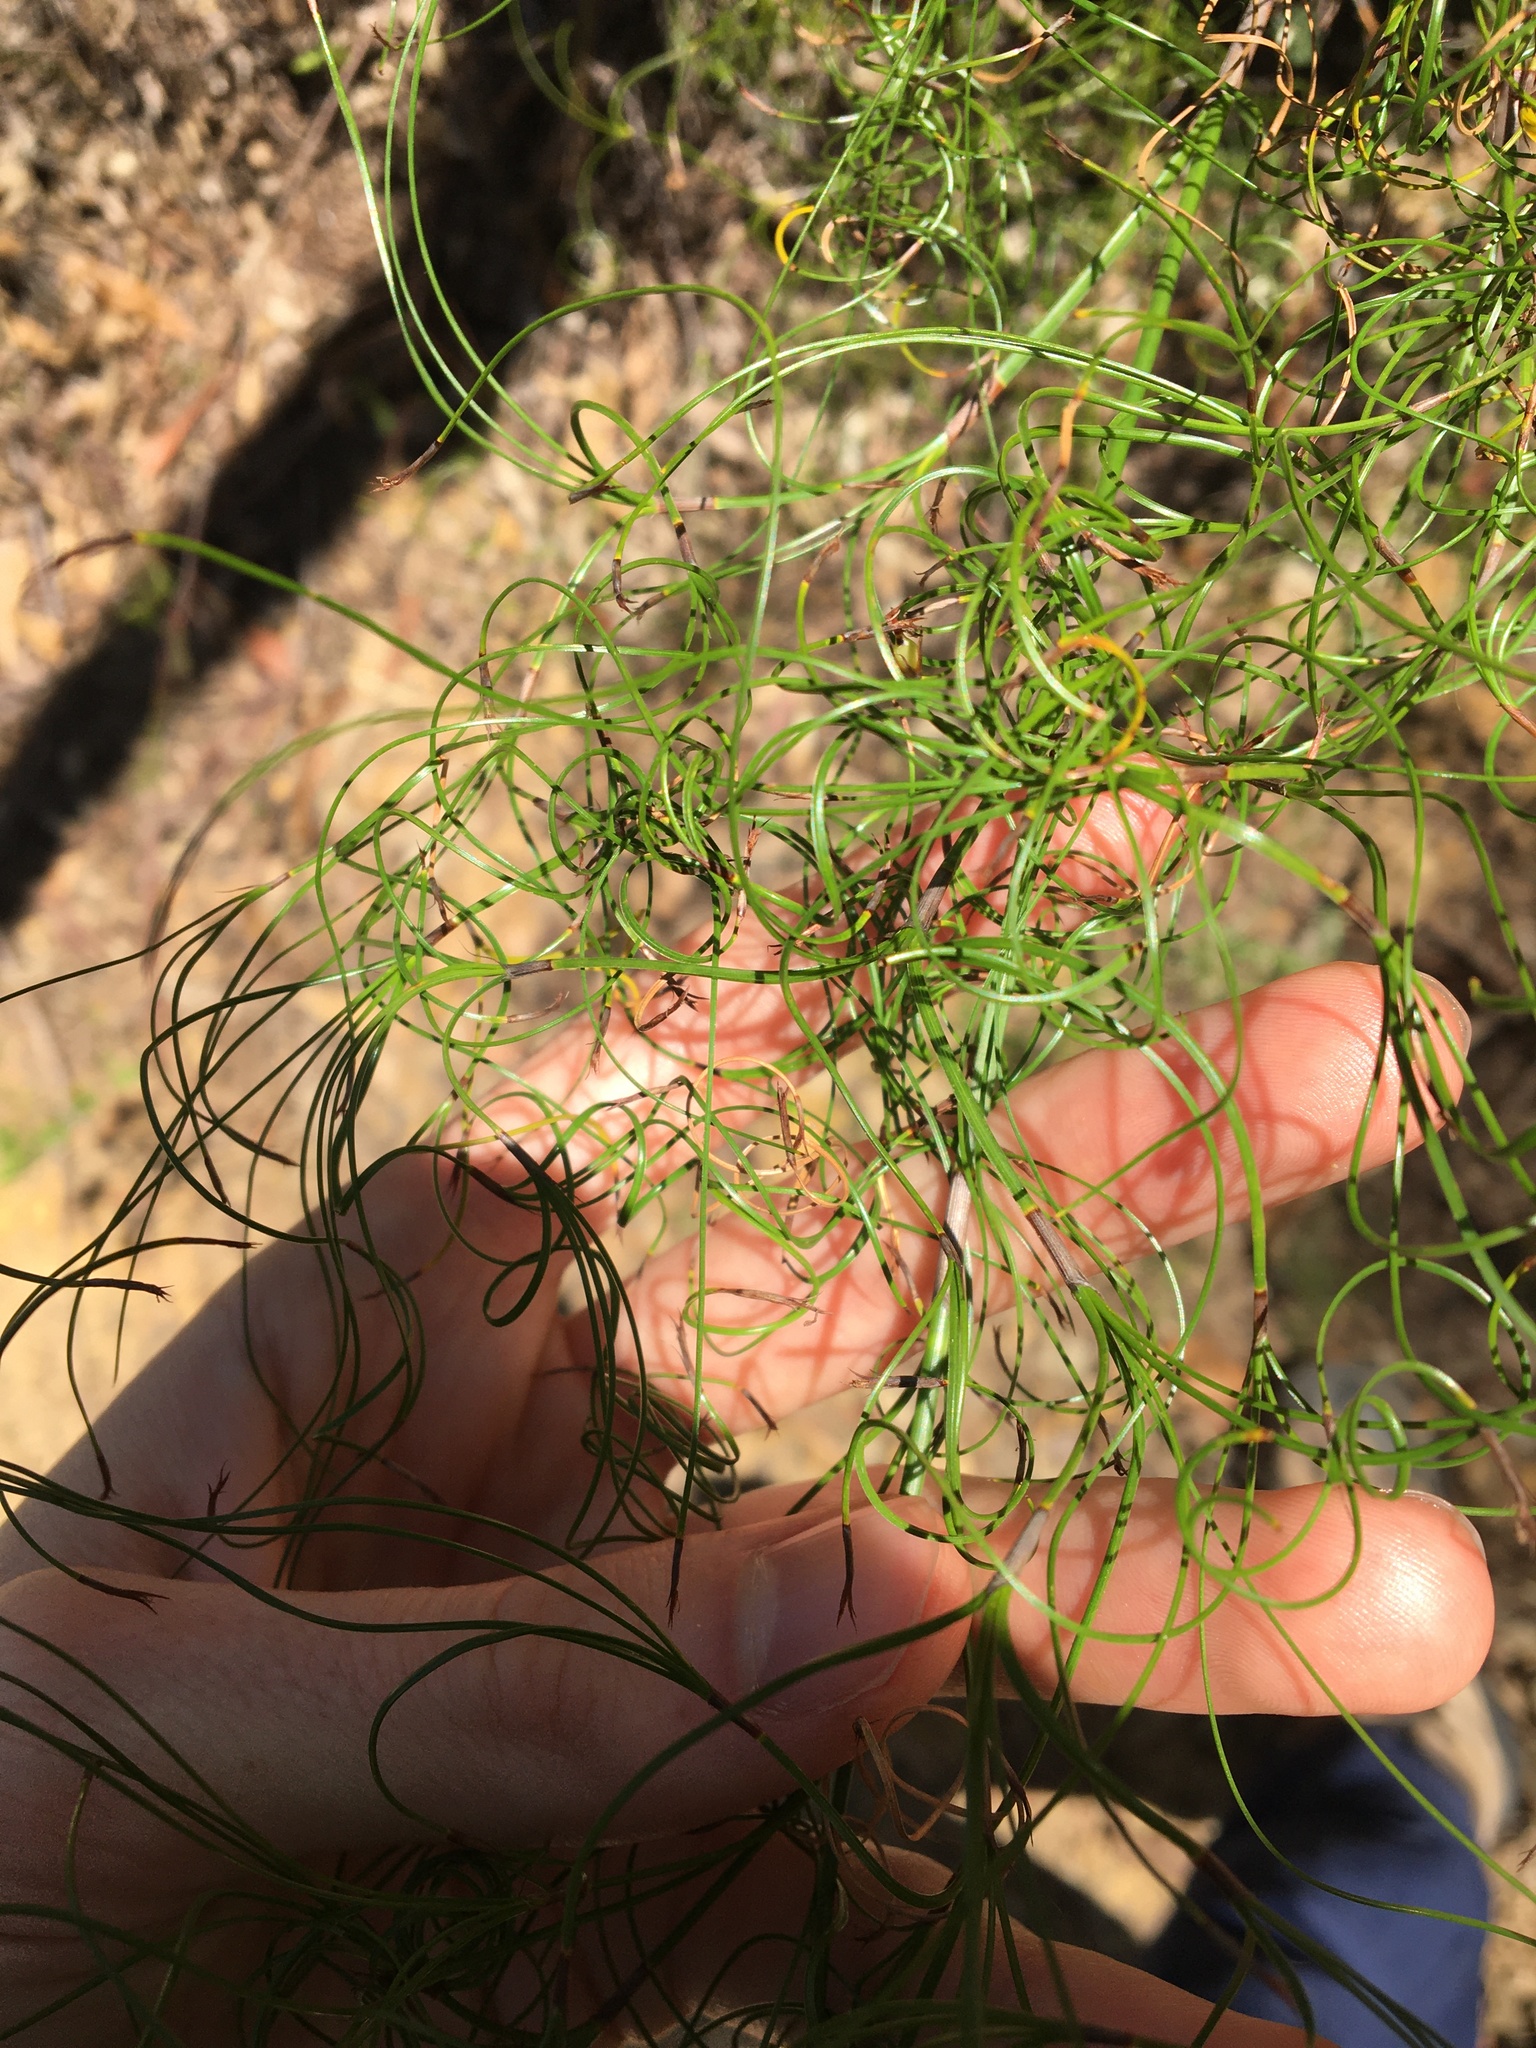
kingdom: Plantae
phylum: Tracheophyta
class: Liliopsida
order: Poales
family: Cyperaceae
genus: Caustis
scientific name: Caustis flexuosa
